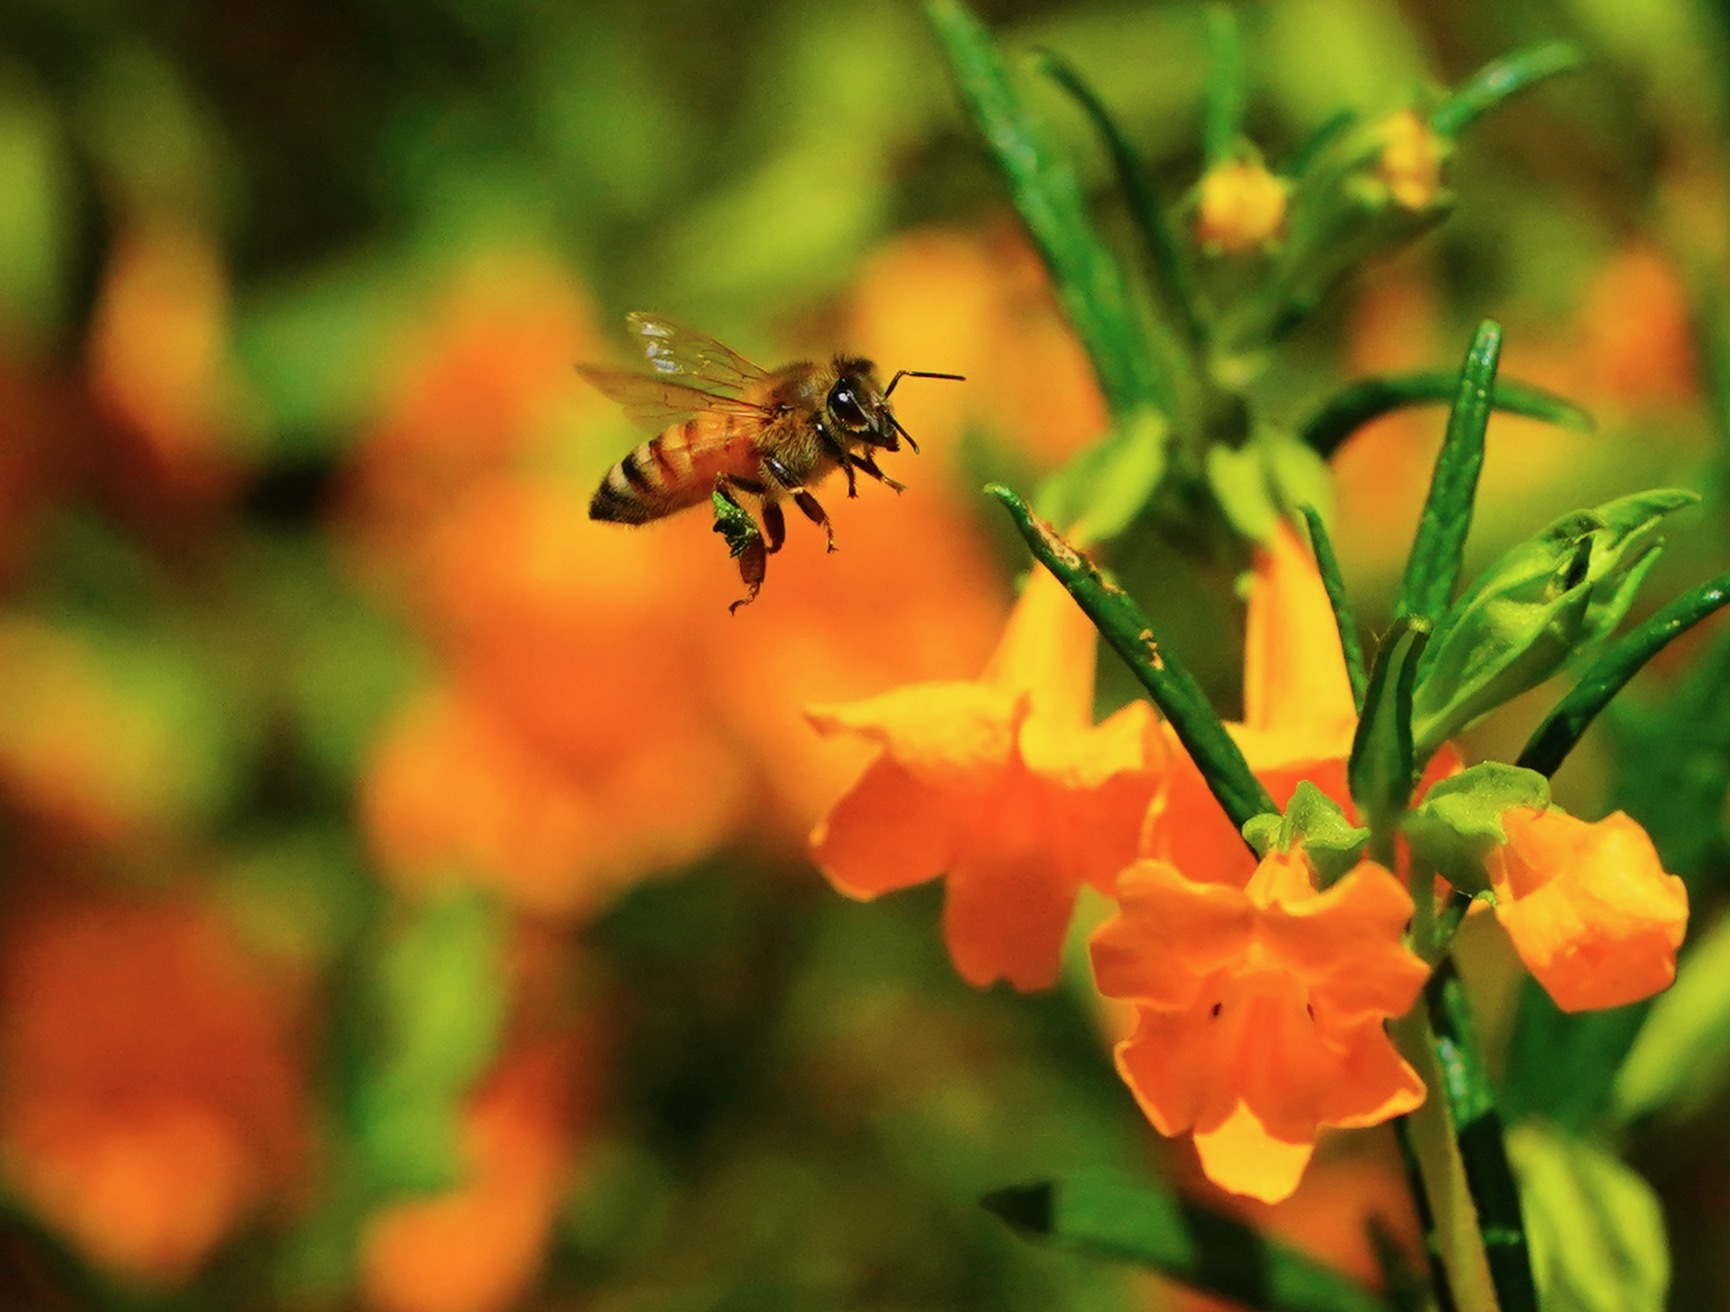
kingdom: Animalia
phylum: Arthropoda
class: Insecta
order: Hymenoptera
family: Apidae
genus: Apis
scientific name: Apis mellifera
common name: Honey bee
